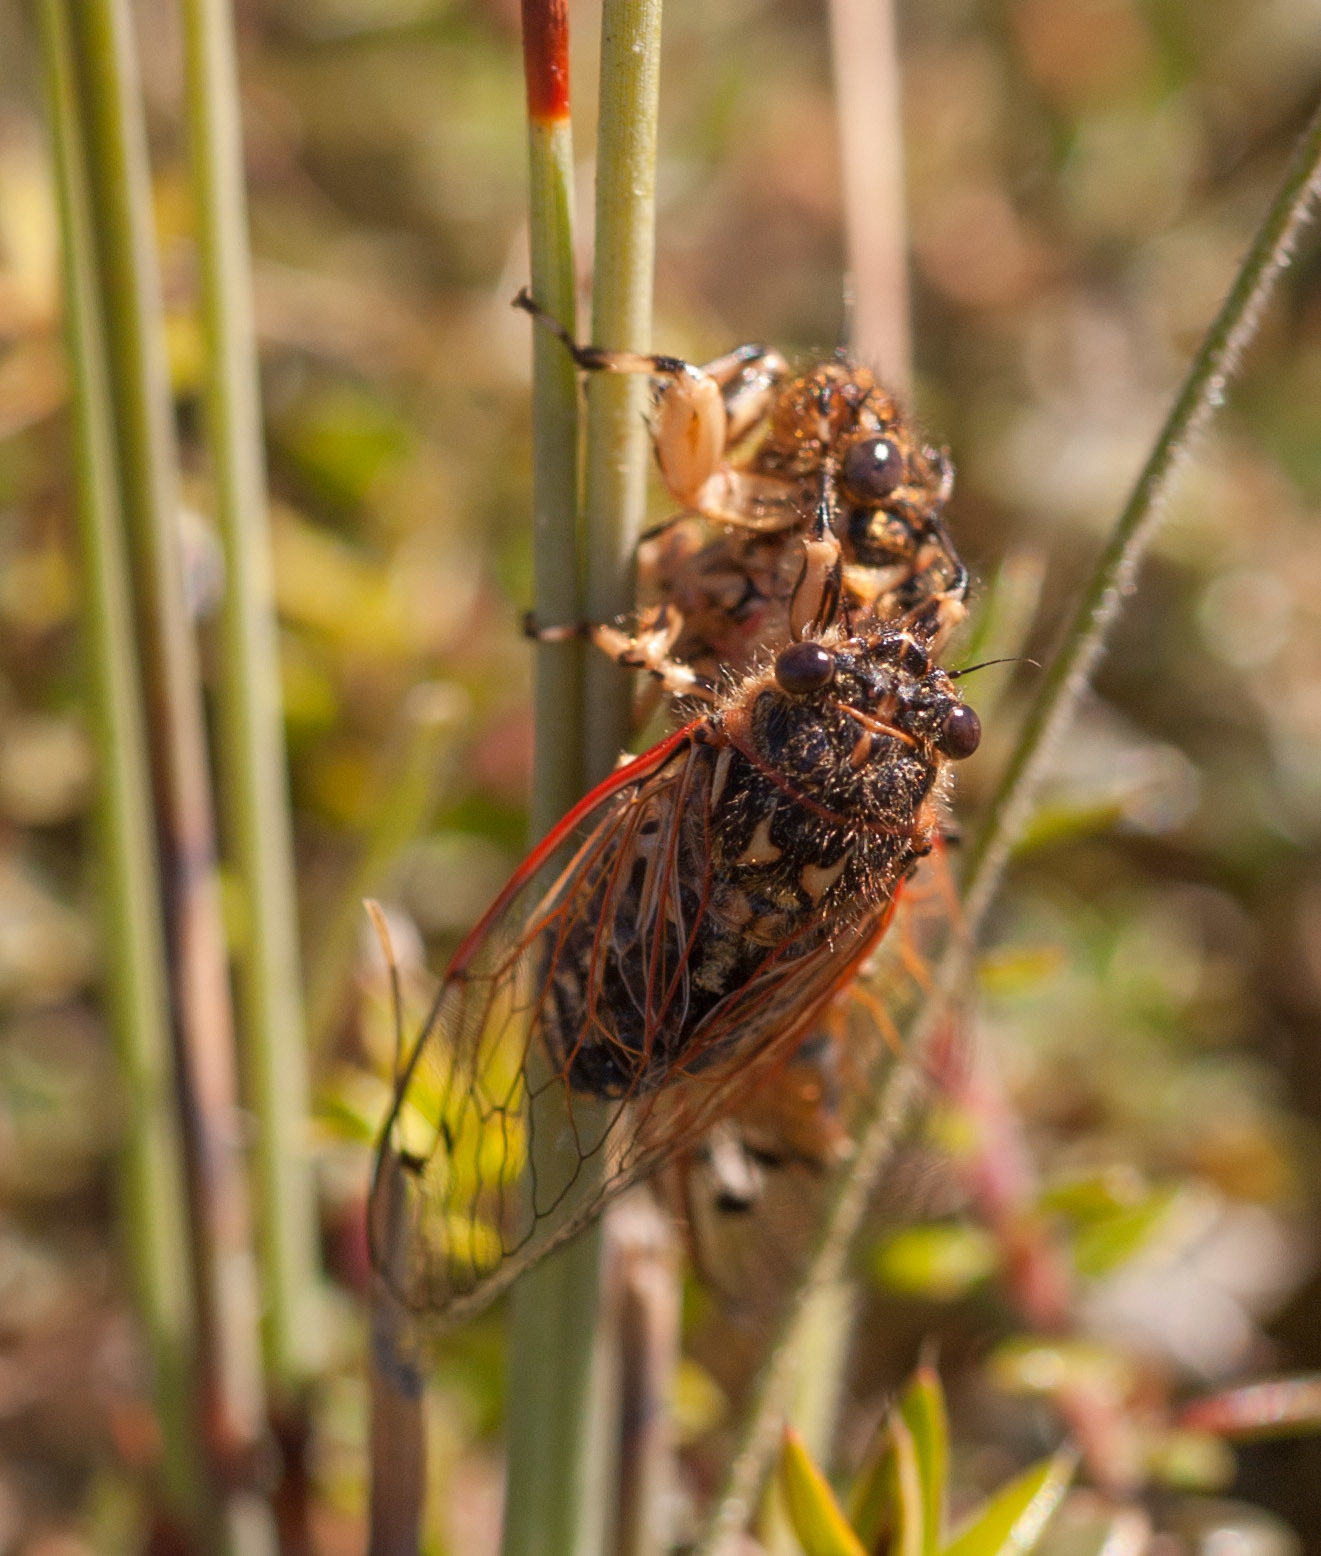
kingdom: Animalia
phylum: Arthropoda
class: Insecta
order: Hemiptera
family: Cicadidae
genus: Diemeniana
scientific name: Diemeniana euronotiana
